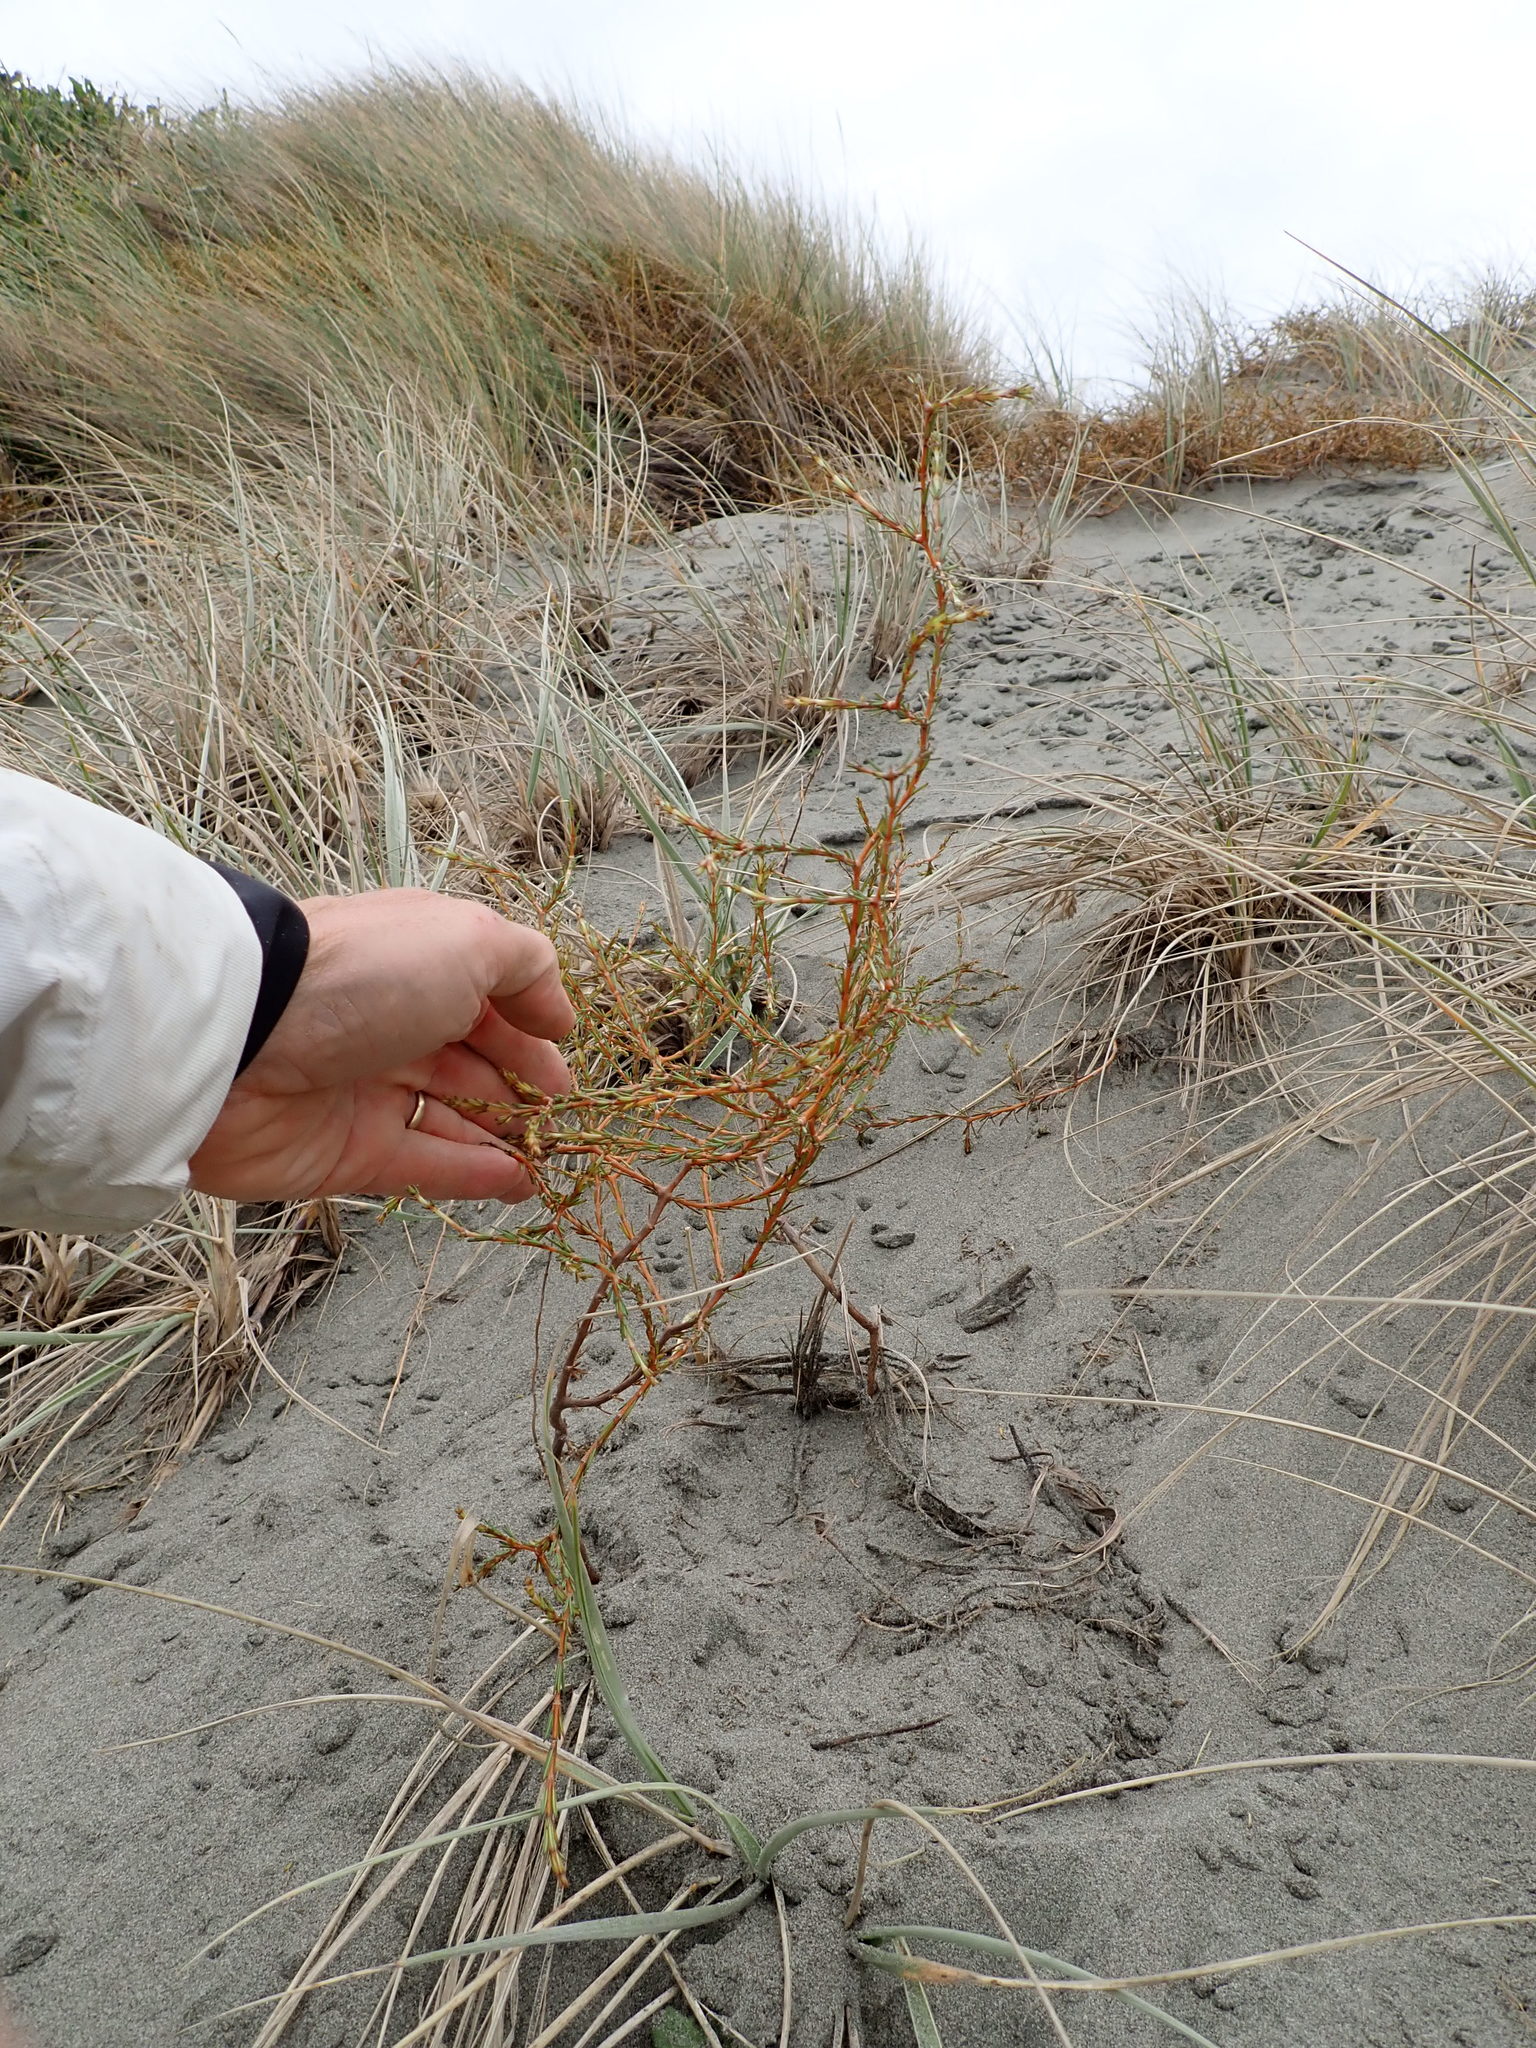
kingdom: Plantae
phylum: Tracheophyta
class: Magnoliopsida
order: Gentianales
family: Rubiaceae
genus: Coprosma
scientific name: Coprosma acerosa
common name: Sand coprosma
